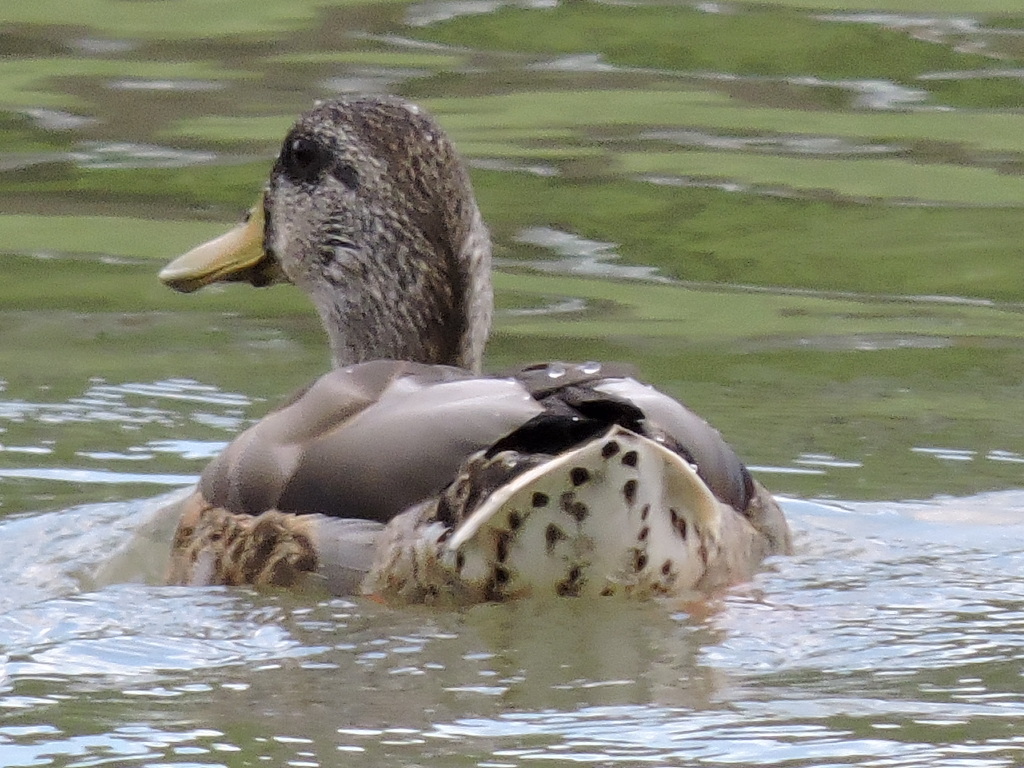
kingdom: Animalia
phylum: Chordata
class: Aves
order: Anseriformes
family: Anatidae
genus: Anas
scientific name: Anas platyrhynchos
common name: Mallard
